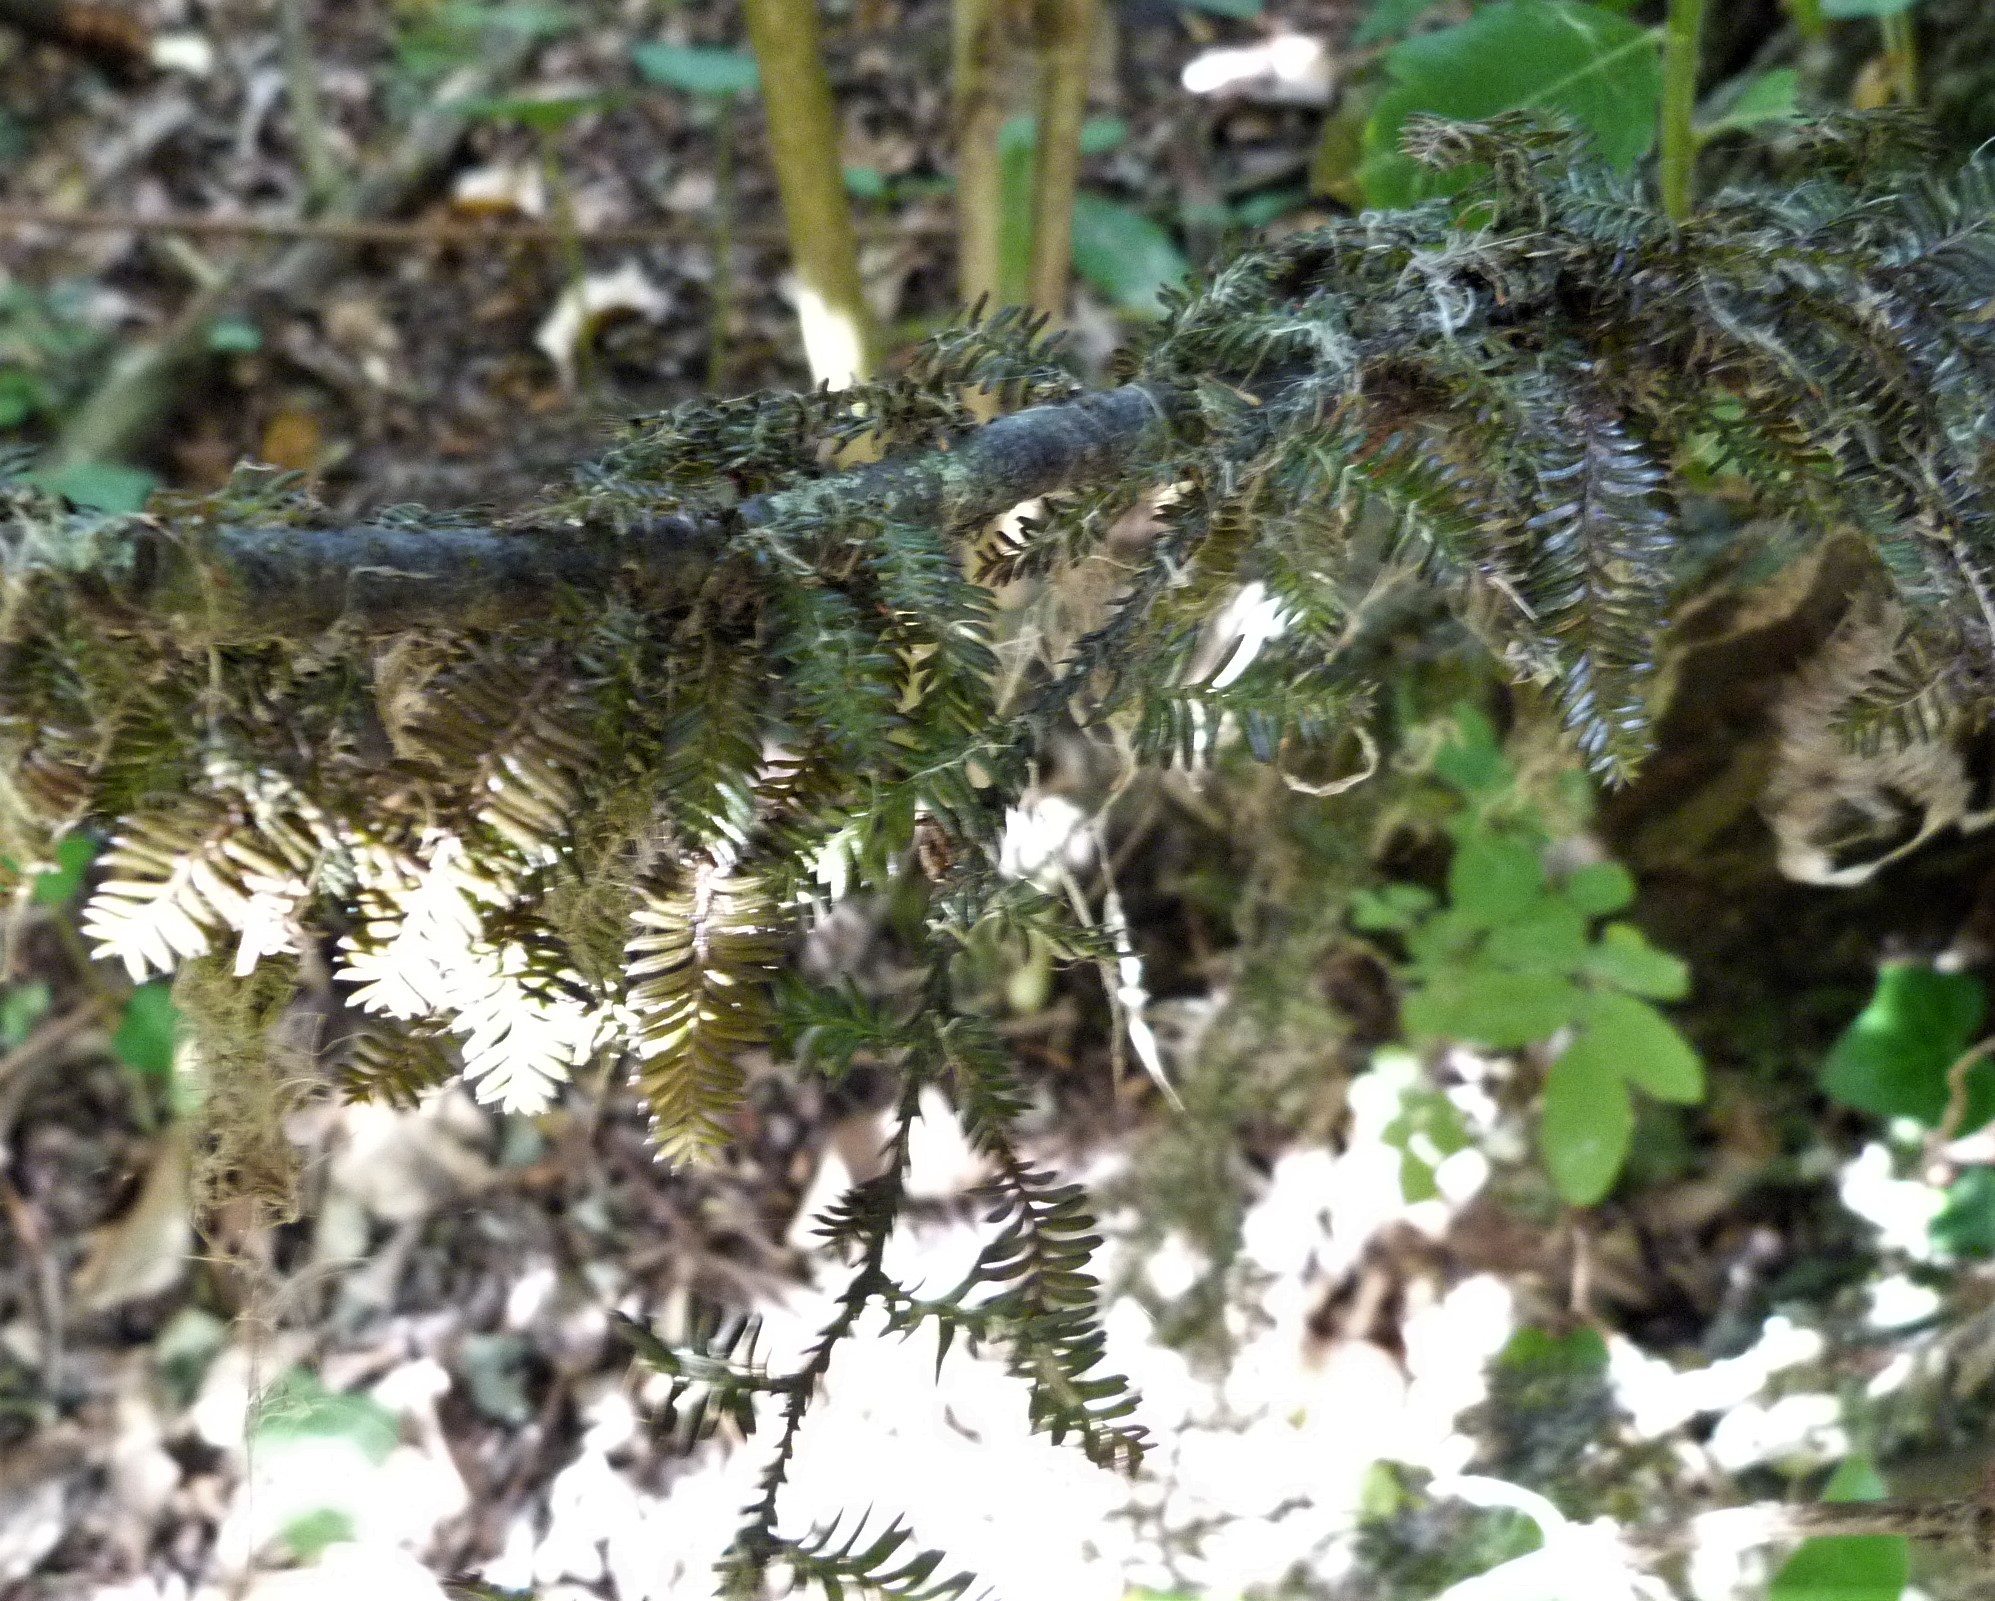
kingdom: Plantae
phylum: Tracheophyta
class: Pinopsida
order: Pinales
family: Podocarpaceae
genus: Dacrycarpus
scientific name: Dacrycarpus dacrydioides
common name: White pine
